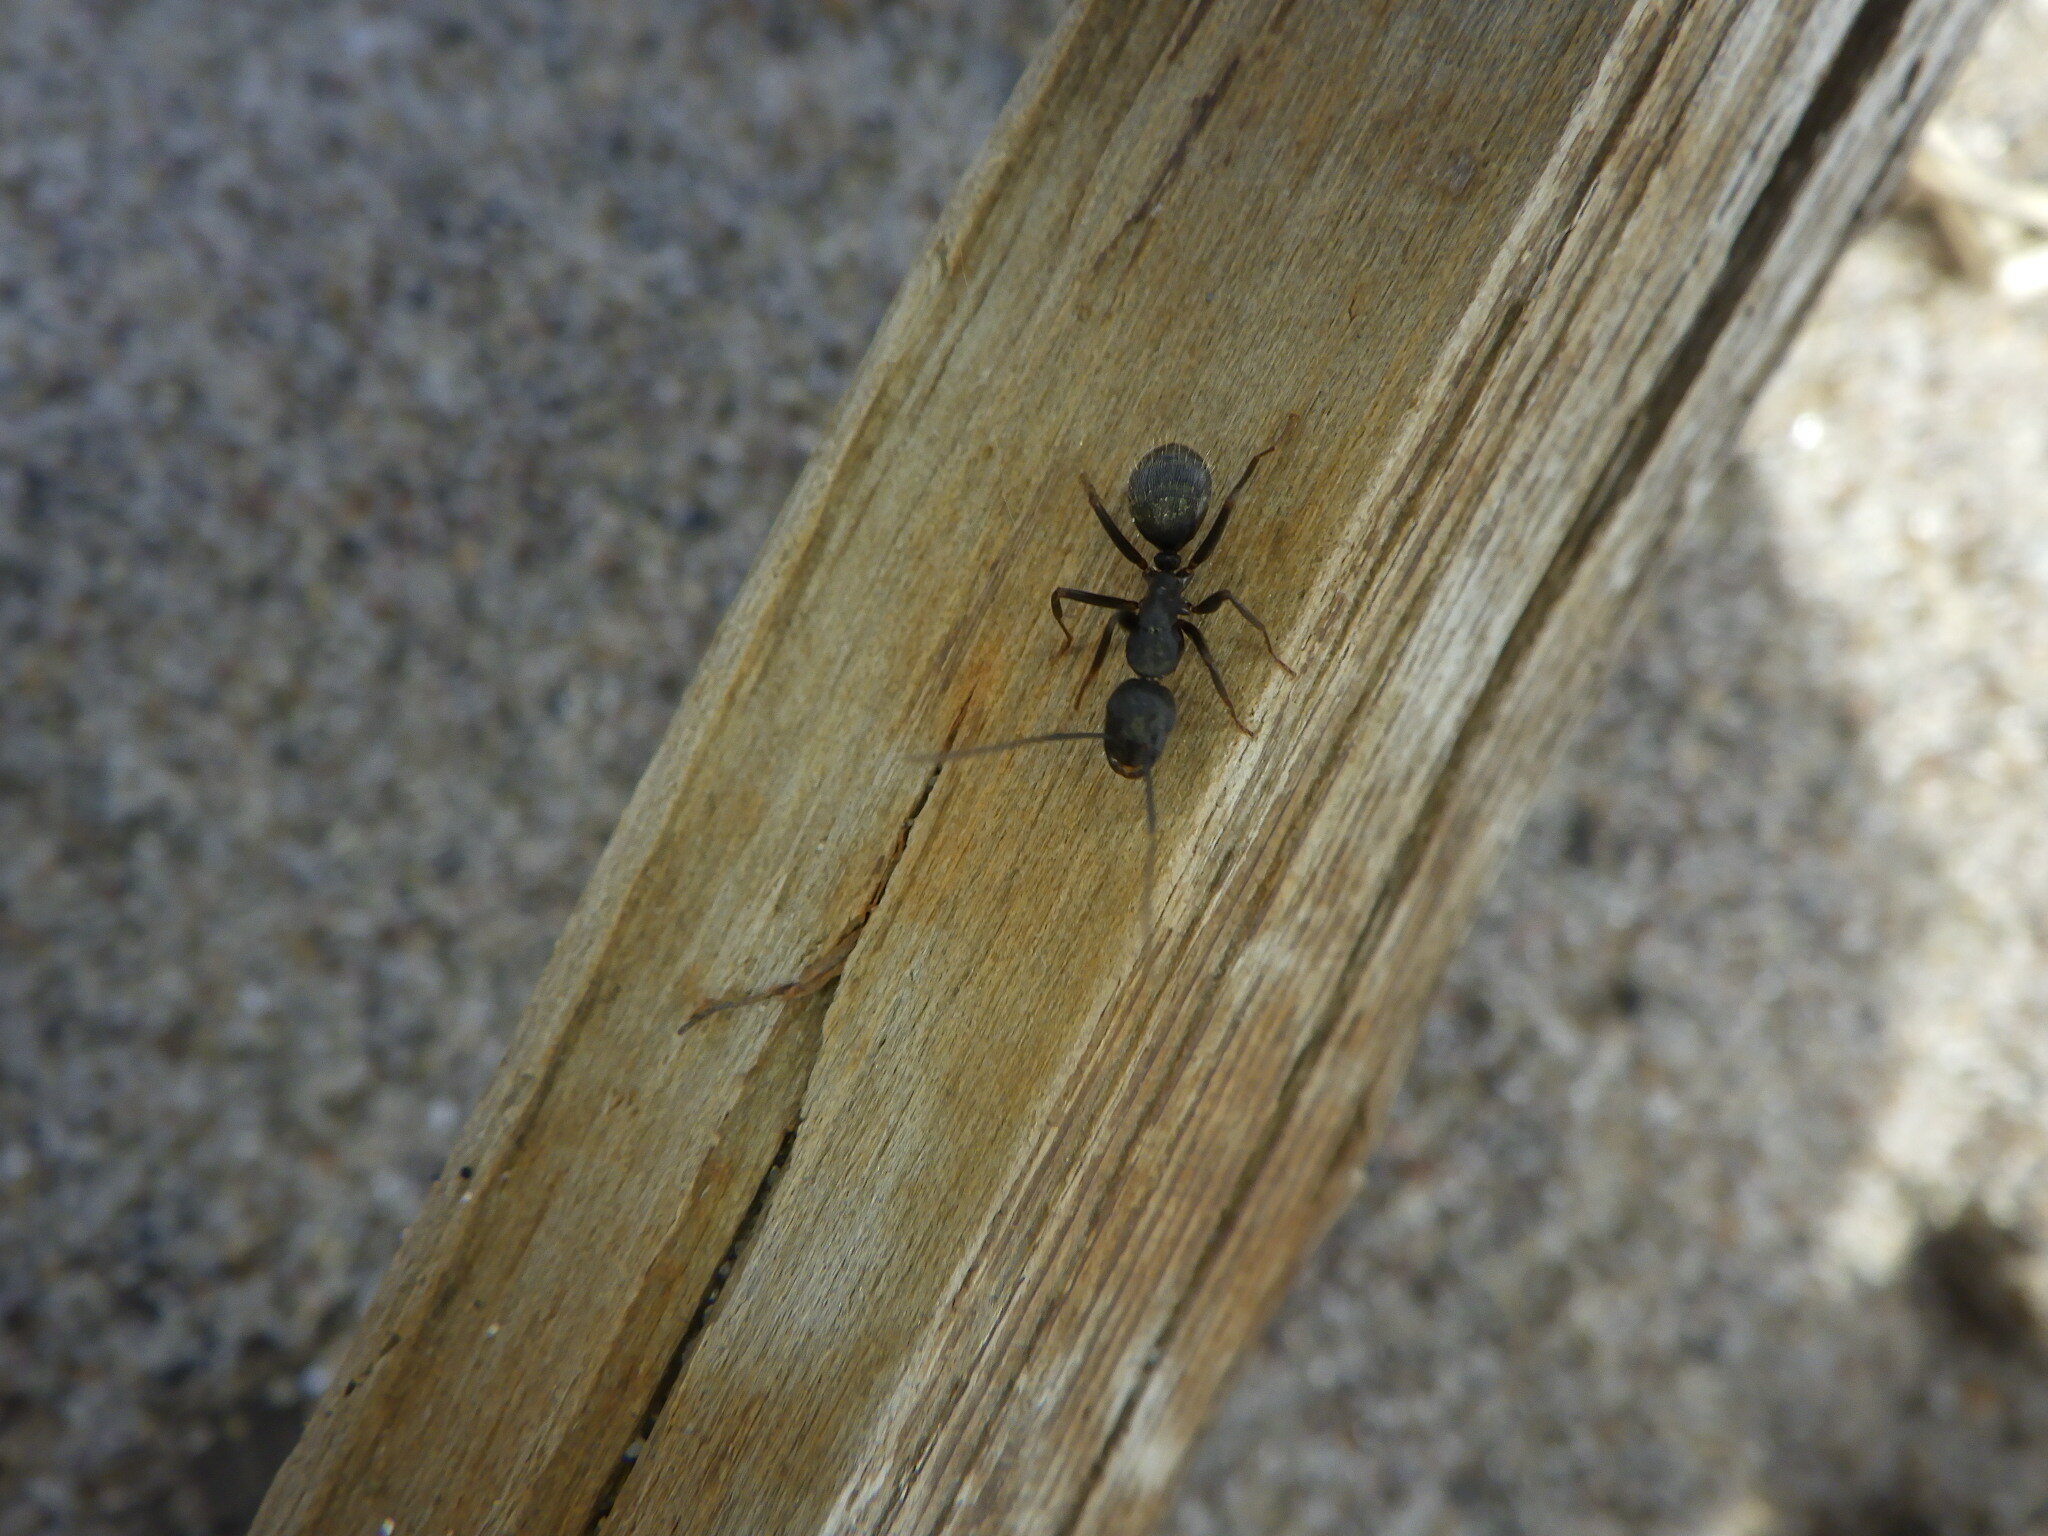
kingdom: Animalia
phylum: Arthropoda
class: Insecta
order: Hymenoptera
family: Formicidae
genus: Camponotus
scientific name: Camponotus pennsylvanicus
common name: Black carpenter ant
